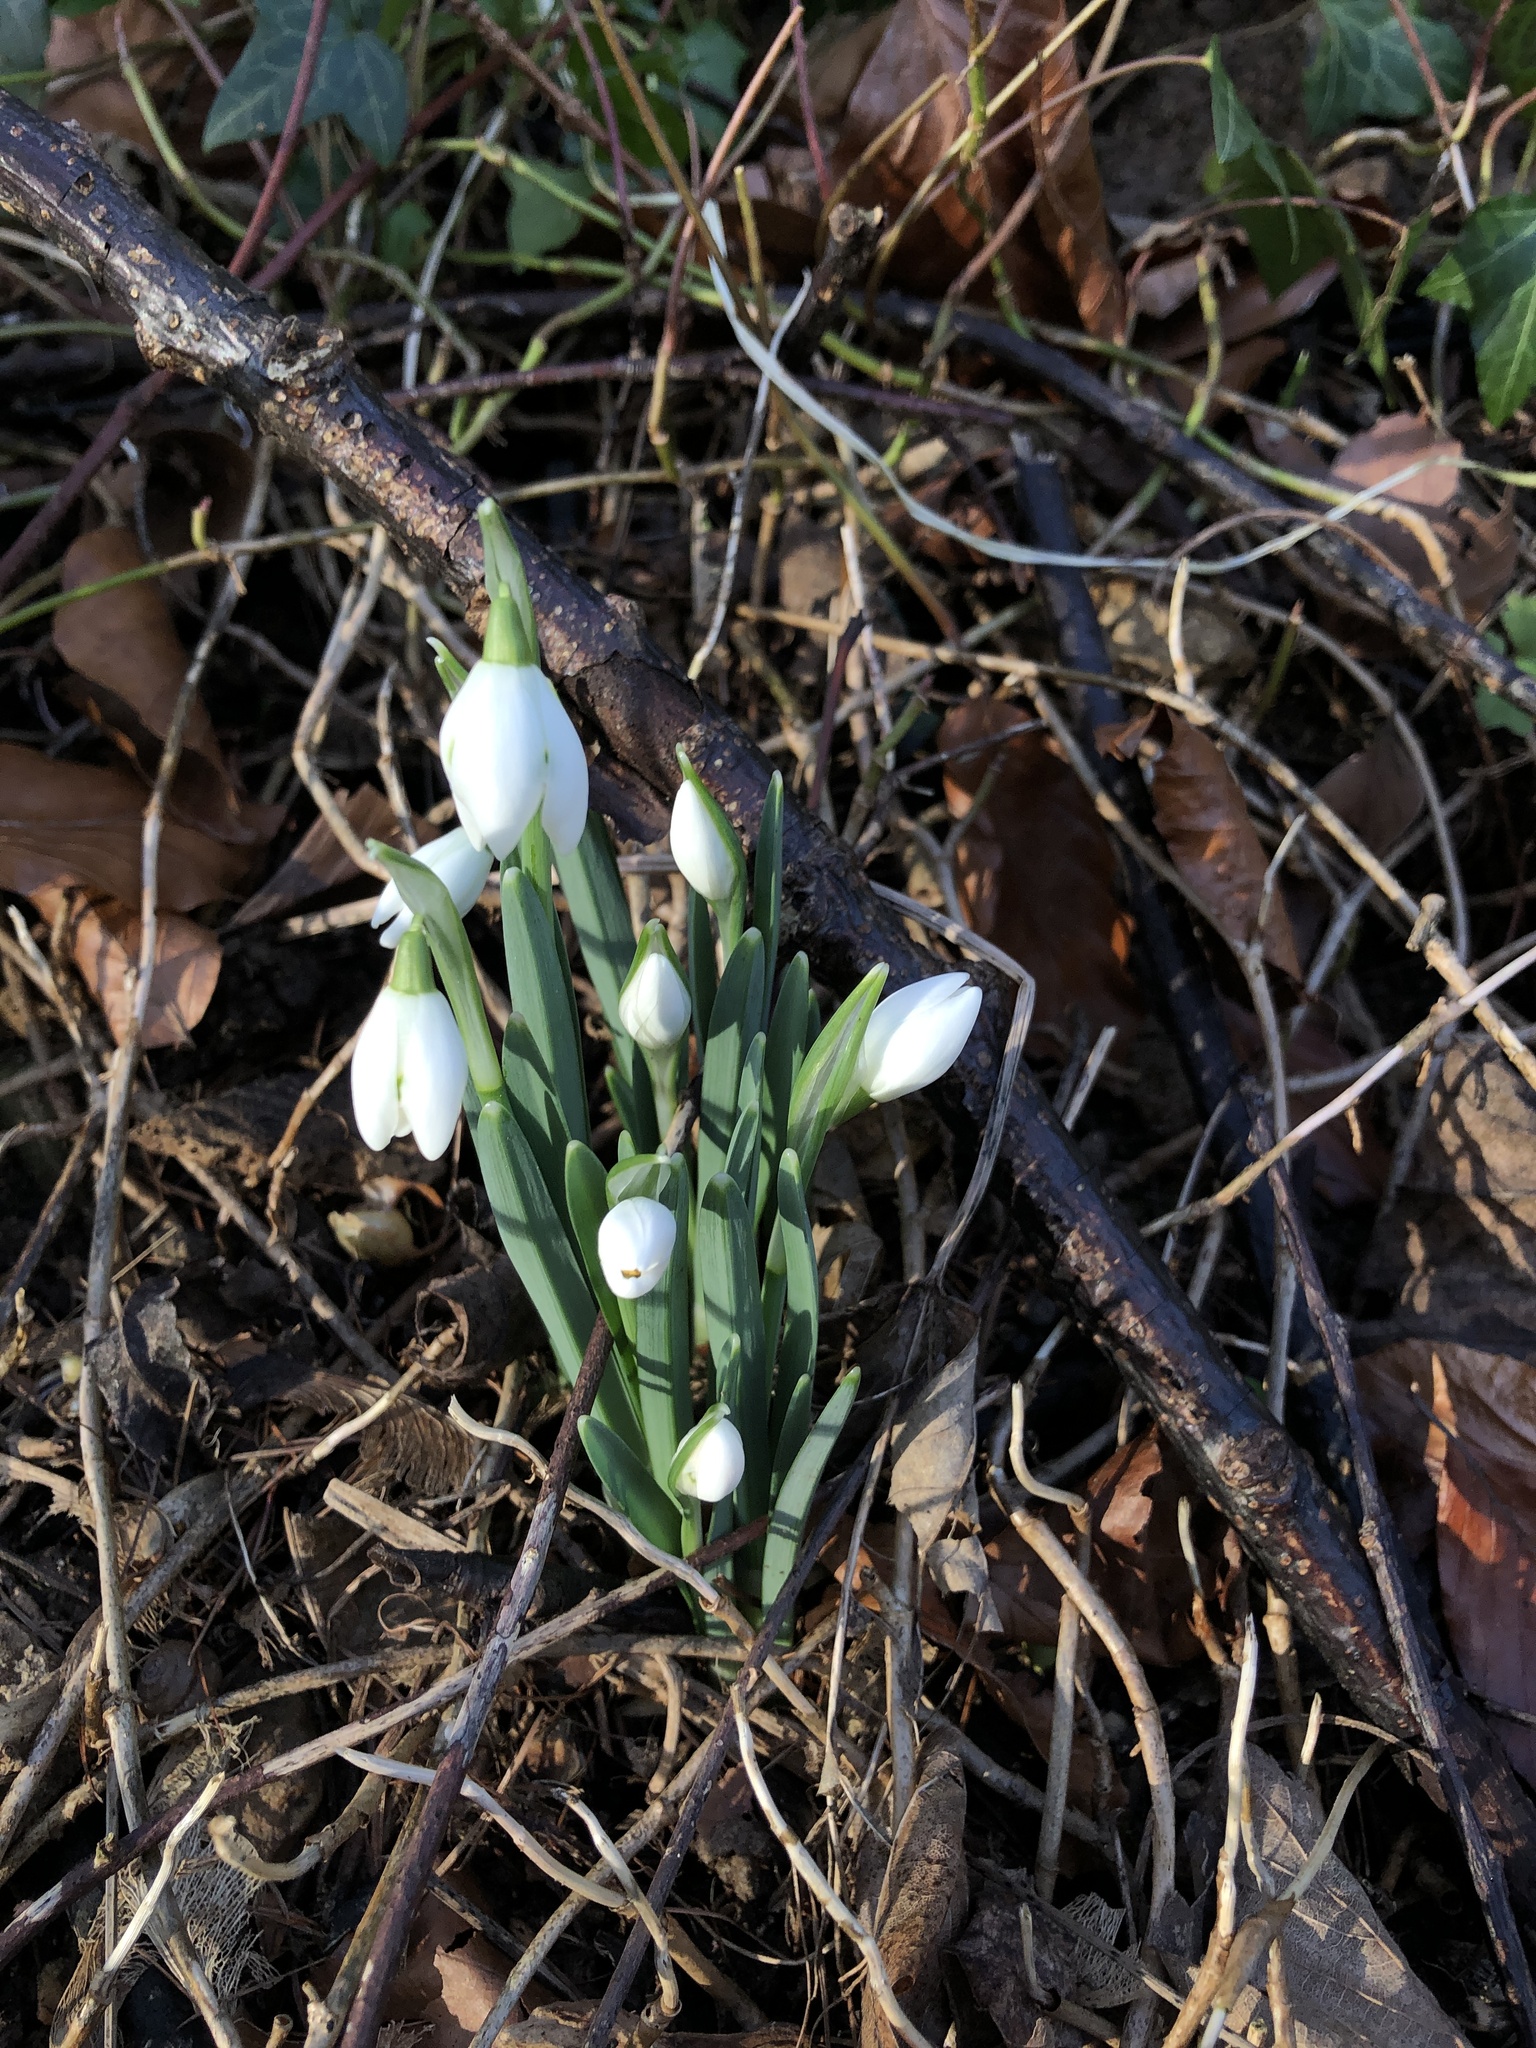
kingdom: Plantae
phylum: Tracheophyta
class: Liliopsida
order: Asparagales
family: Amaryllidaceae
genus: Galanthus
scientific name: Galanthus nivalis
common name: Snowdrop
